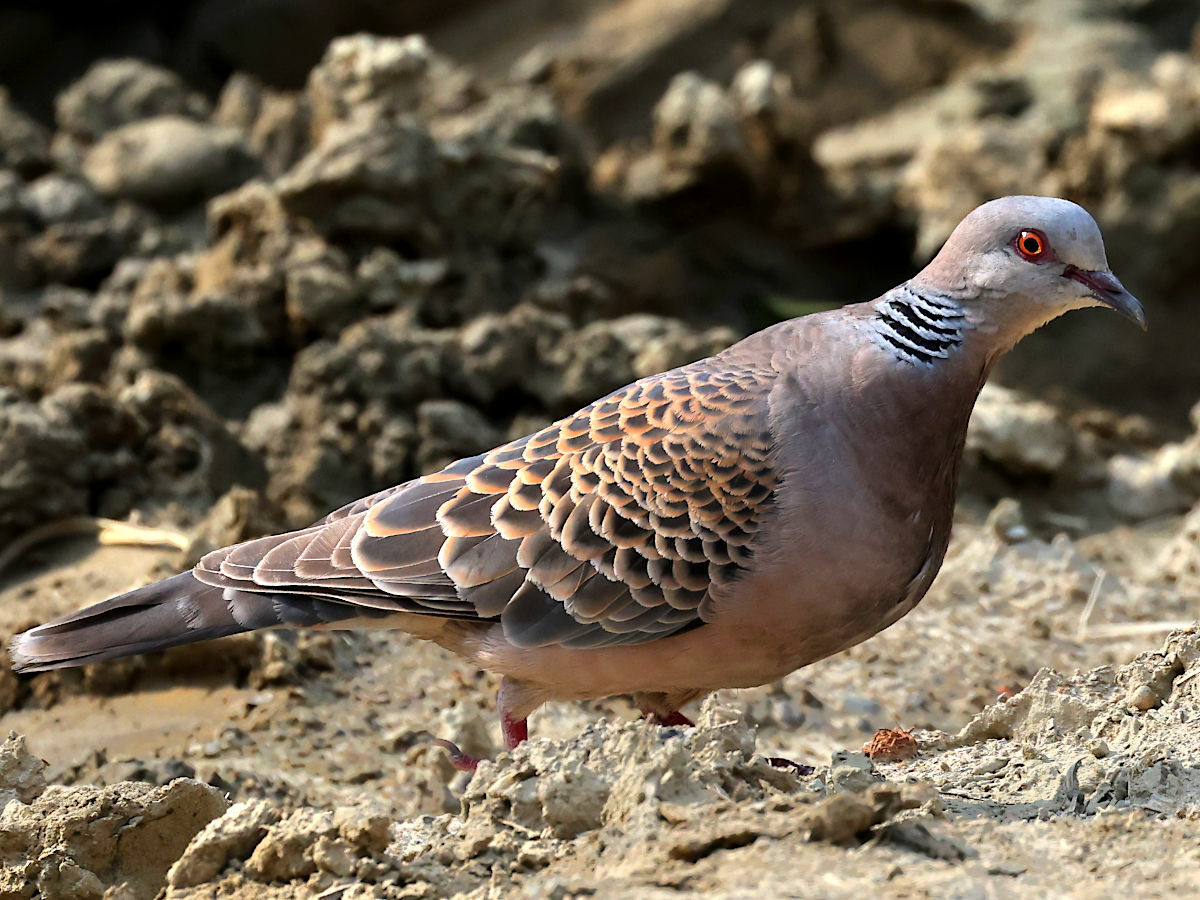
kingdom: Animalia
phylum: Chordata
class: Aves
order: Columbiformes
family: Columbidae
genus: Streptopelia
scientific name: Streptopelia orientalis
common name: Oriental turtle dove
